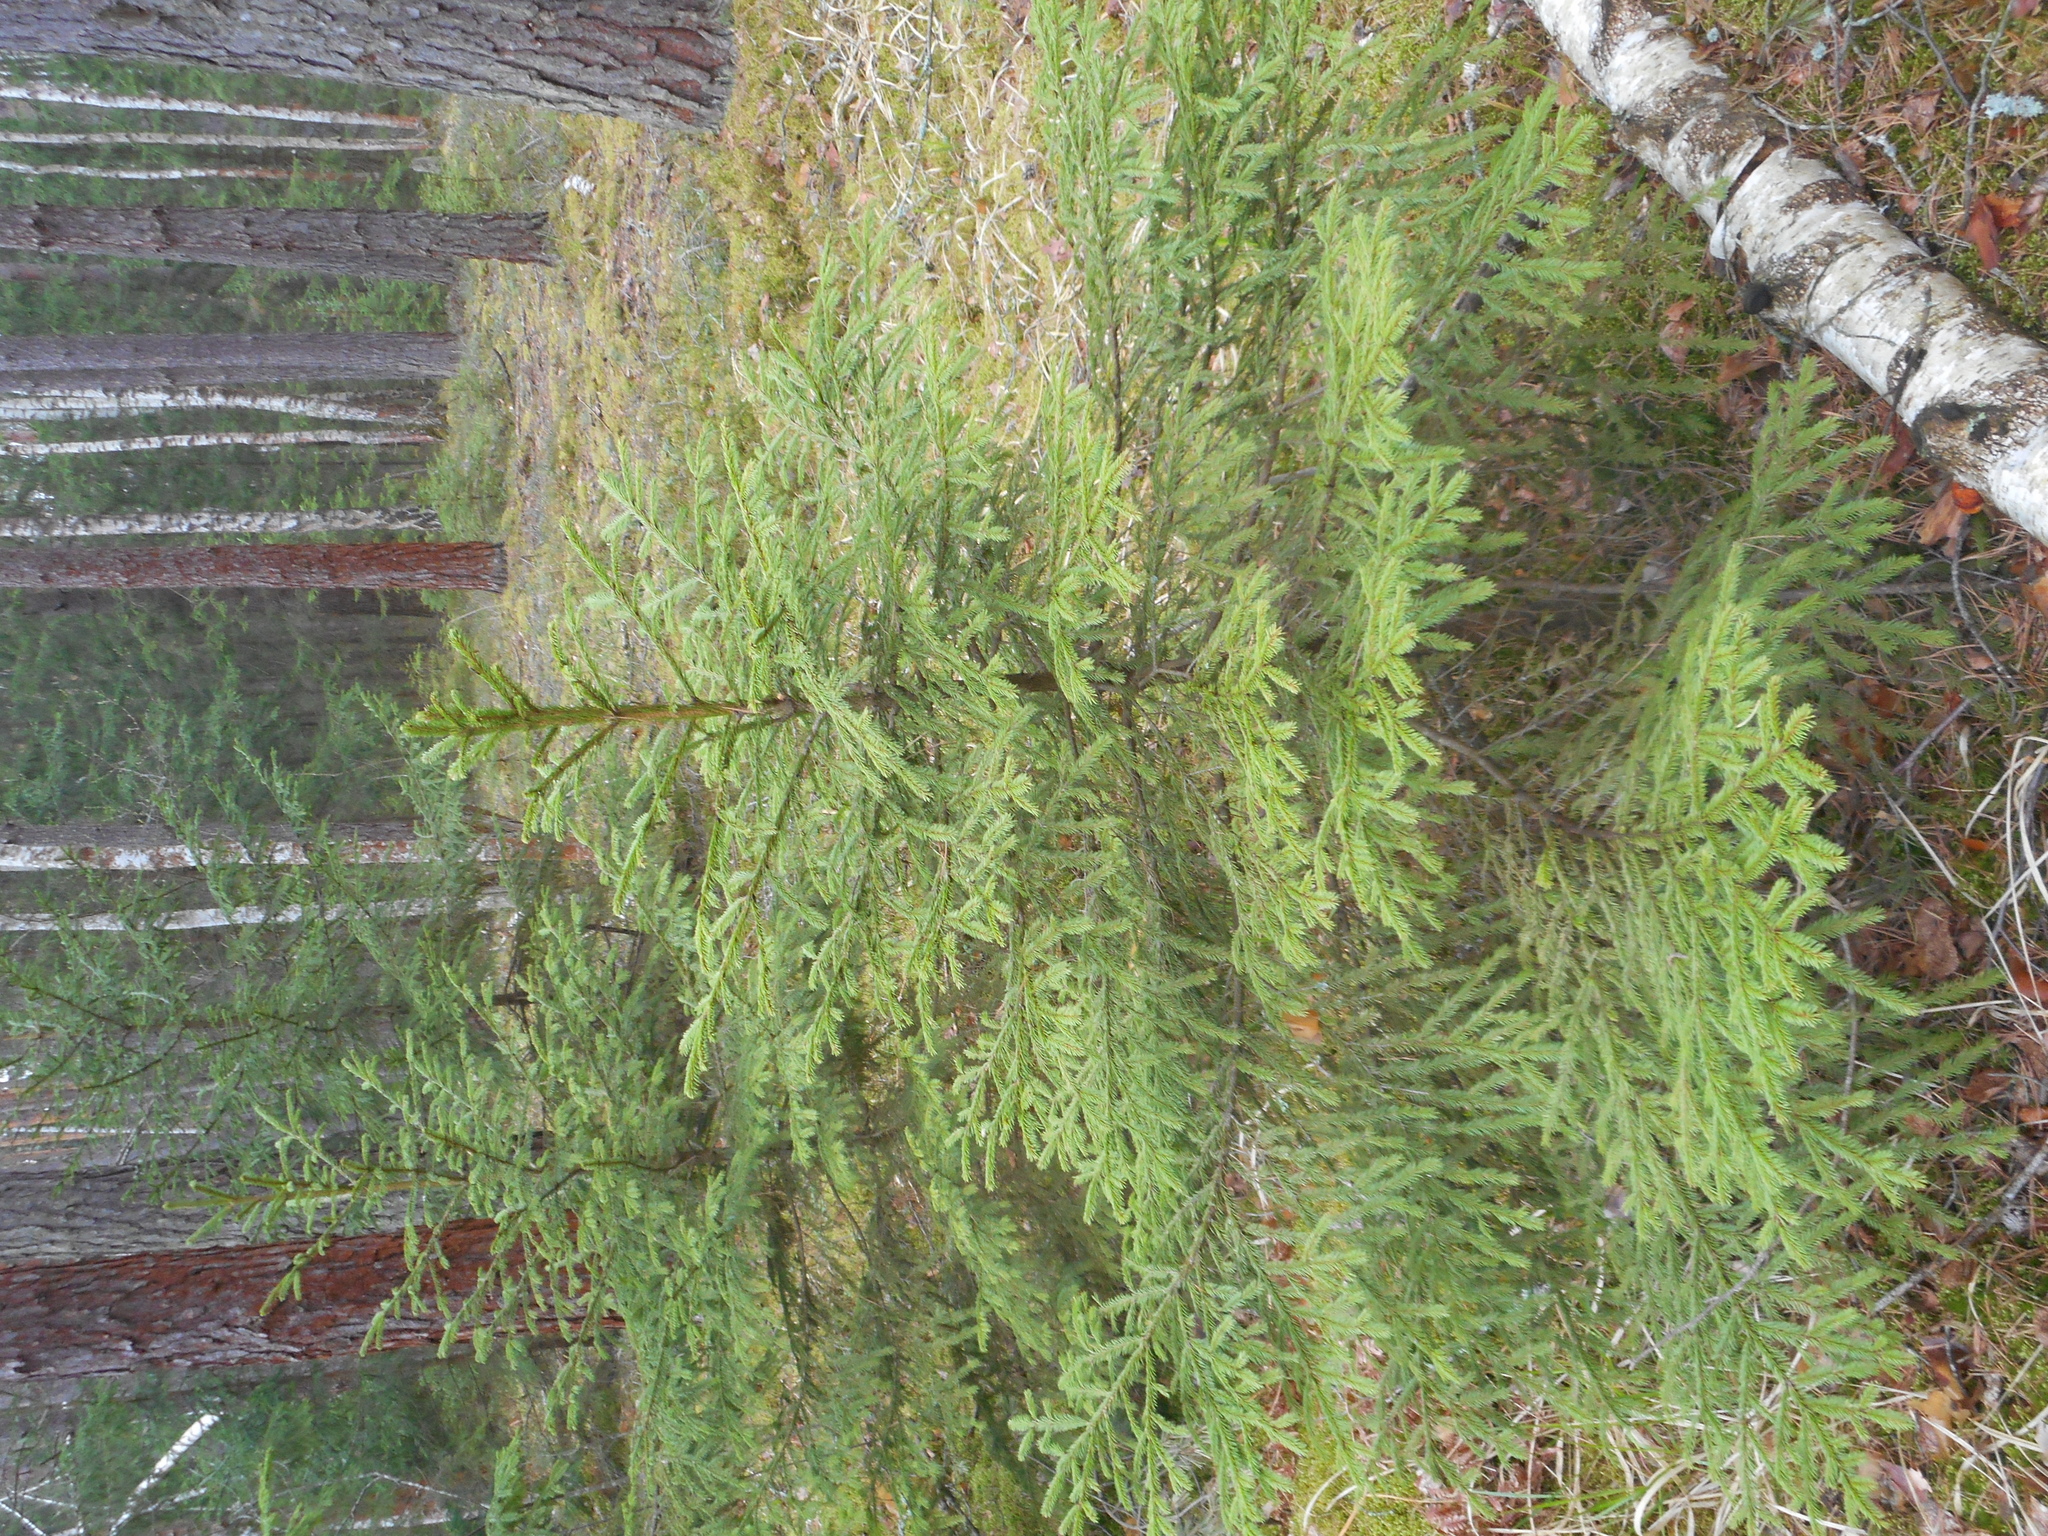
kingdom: Plantae
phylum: Tracheophyta
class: Pinopsida
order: Pinales
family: Pinaceae
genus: Picea
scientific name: Picea abies
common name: Norway spruce
